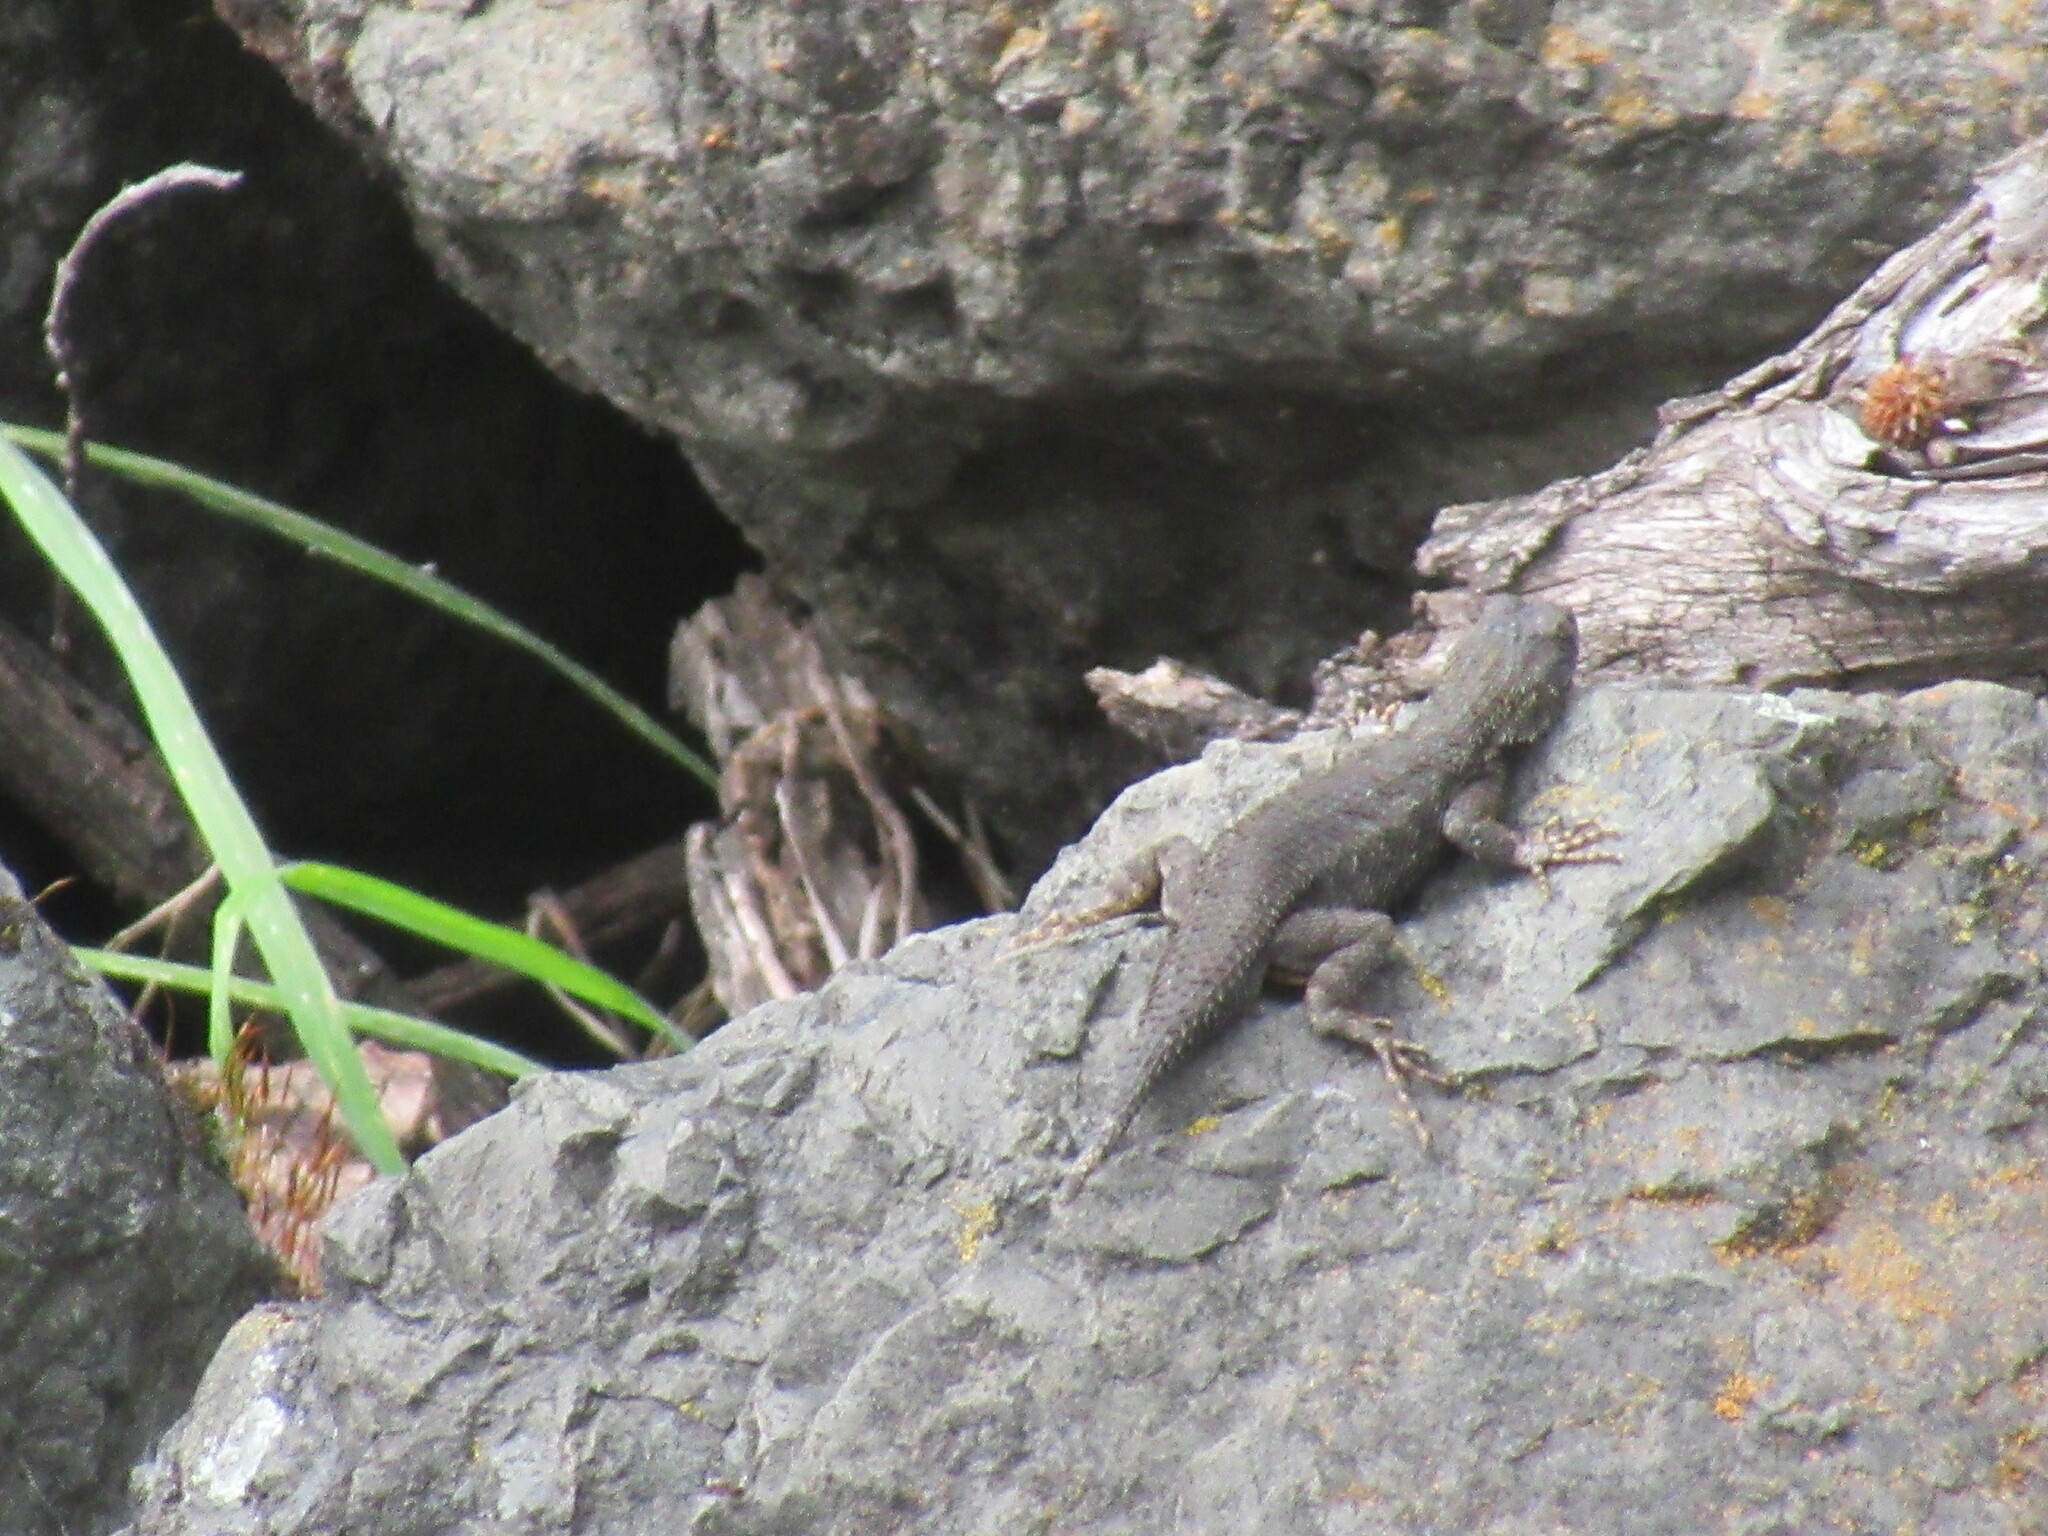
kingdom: Animalia
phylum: Chordata
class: Squamata
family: Phrynosomatidae
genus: Sceloporus
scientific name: Sceloporus occidentalis
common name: Western fence lizard
